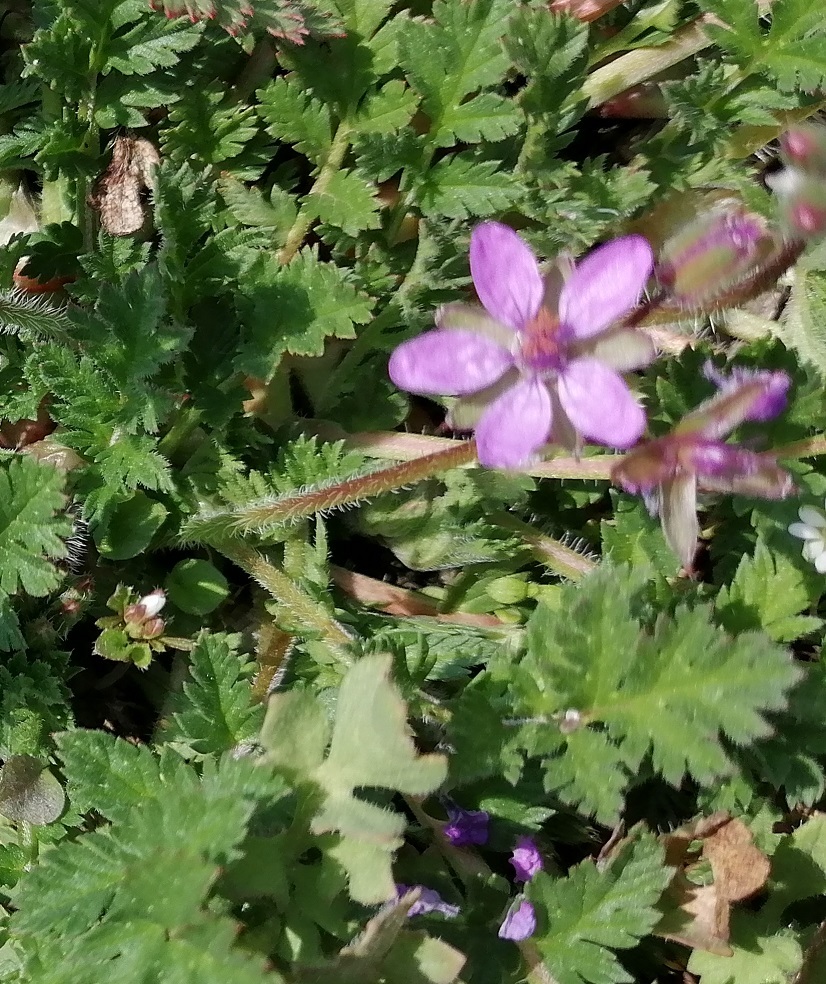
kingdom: Plantae
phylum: Tracheophyta
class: Magnoliopsida
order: Geraniales
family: Geraniaceae
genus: Erodium
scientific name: Erodium cicutarium
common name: Common stork's-bill
